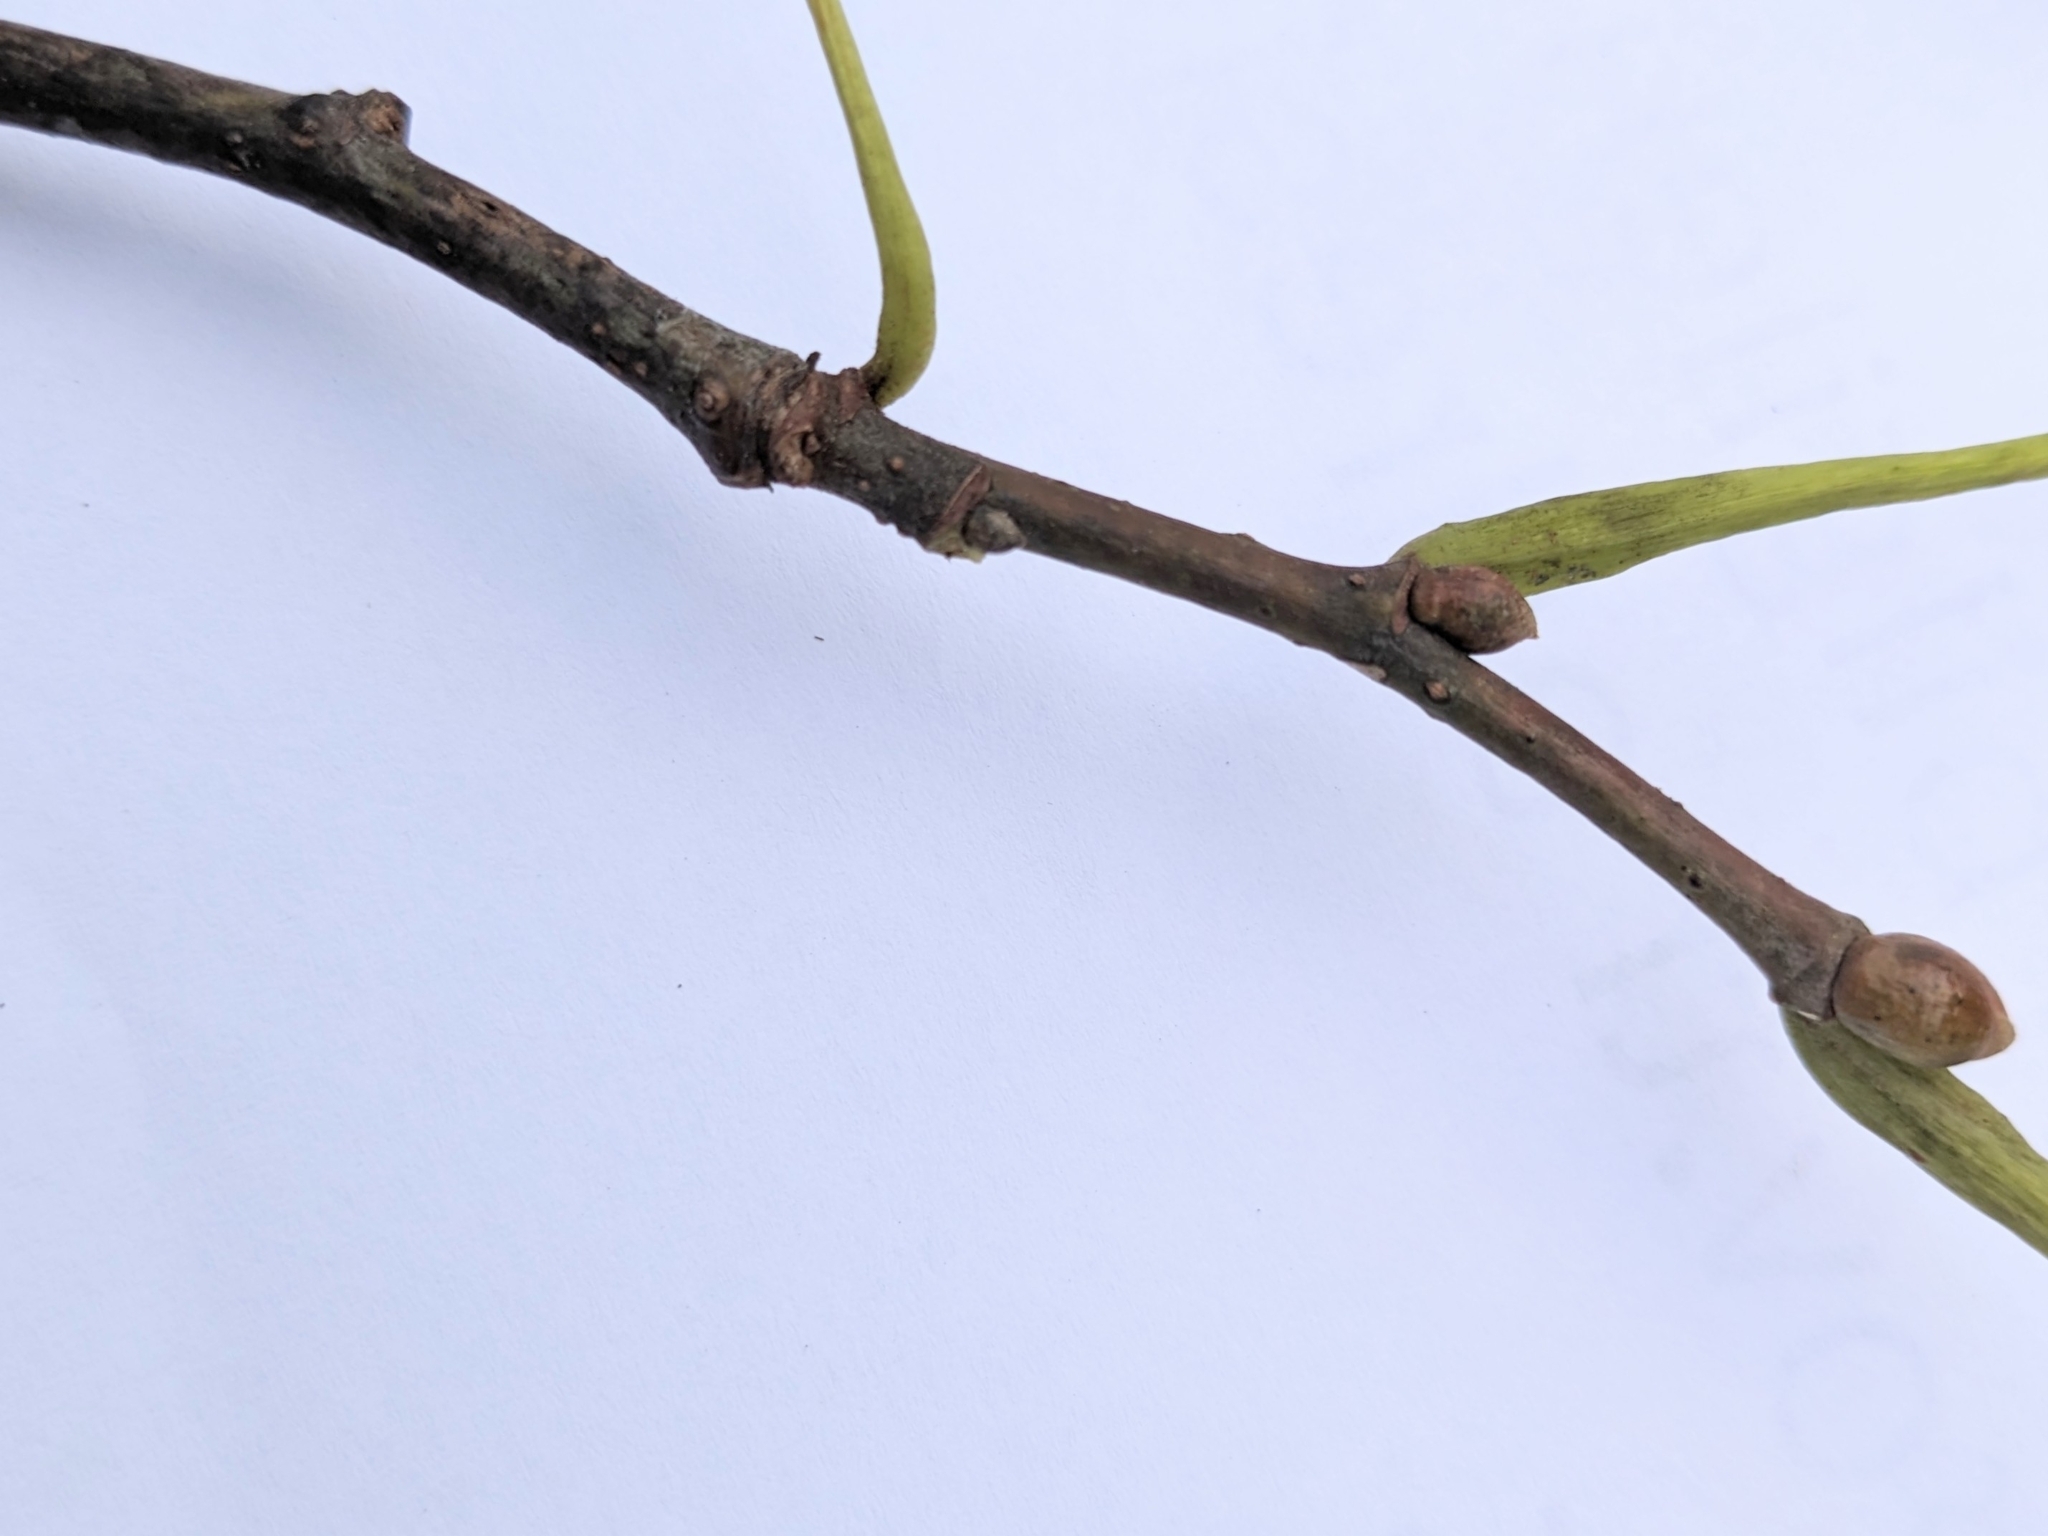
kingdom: Plantae
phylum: Tracheophyta
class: Magnoliopsida
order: Malvales
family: Malvaceae
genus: Tilia
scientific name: Tilia americana
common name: Basswood
